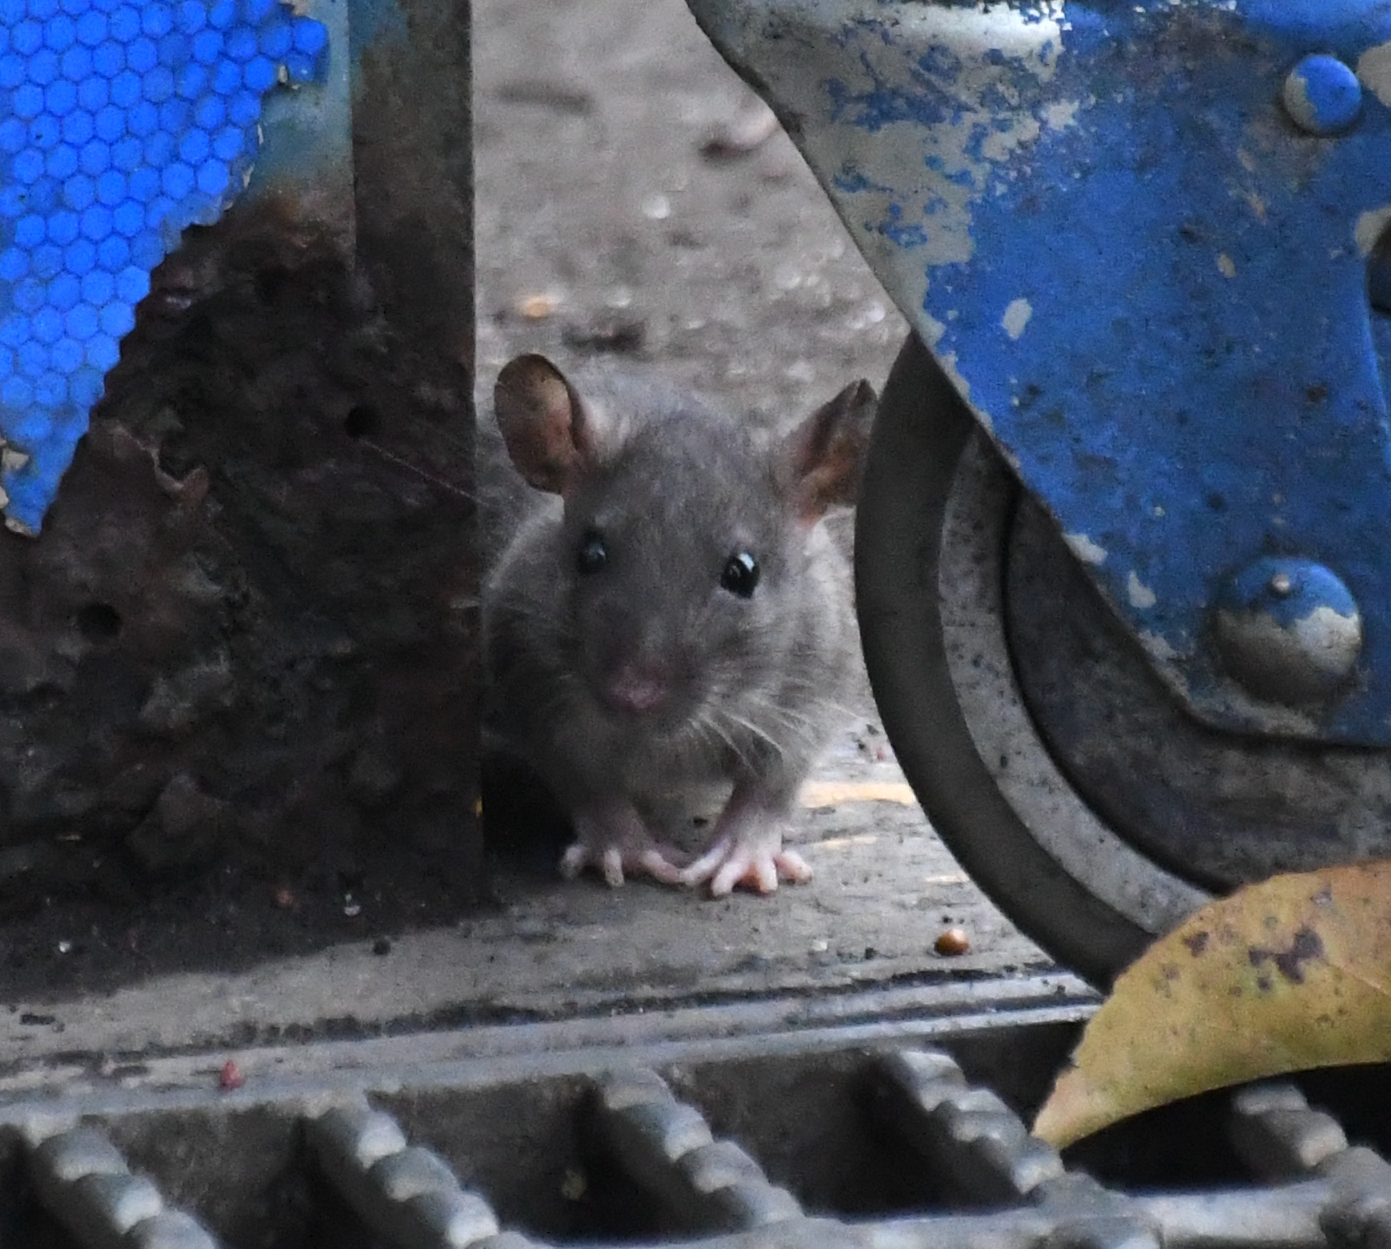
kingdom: Animalia
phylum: Chordata
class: Mammalia
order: Rodentia
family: Muridae
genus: Rattus
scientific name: Rattus norvegicus
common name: Brown rat
